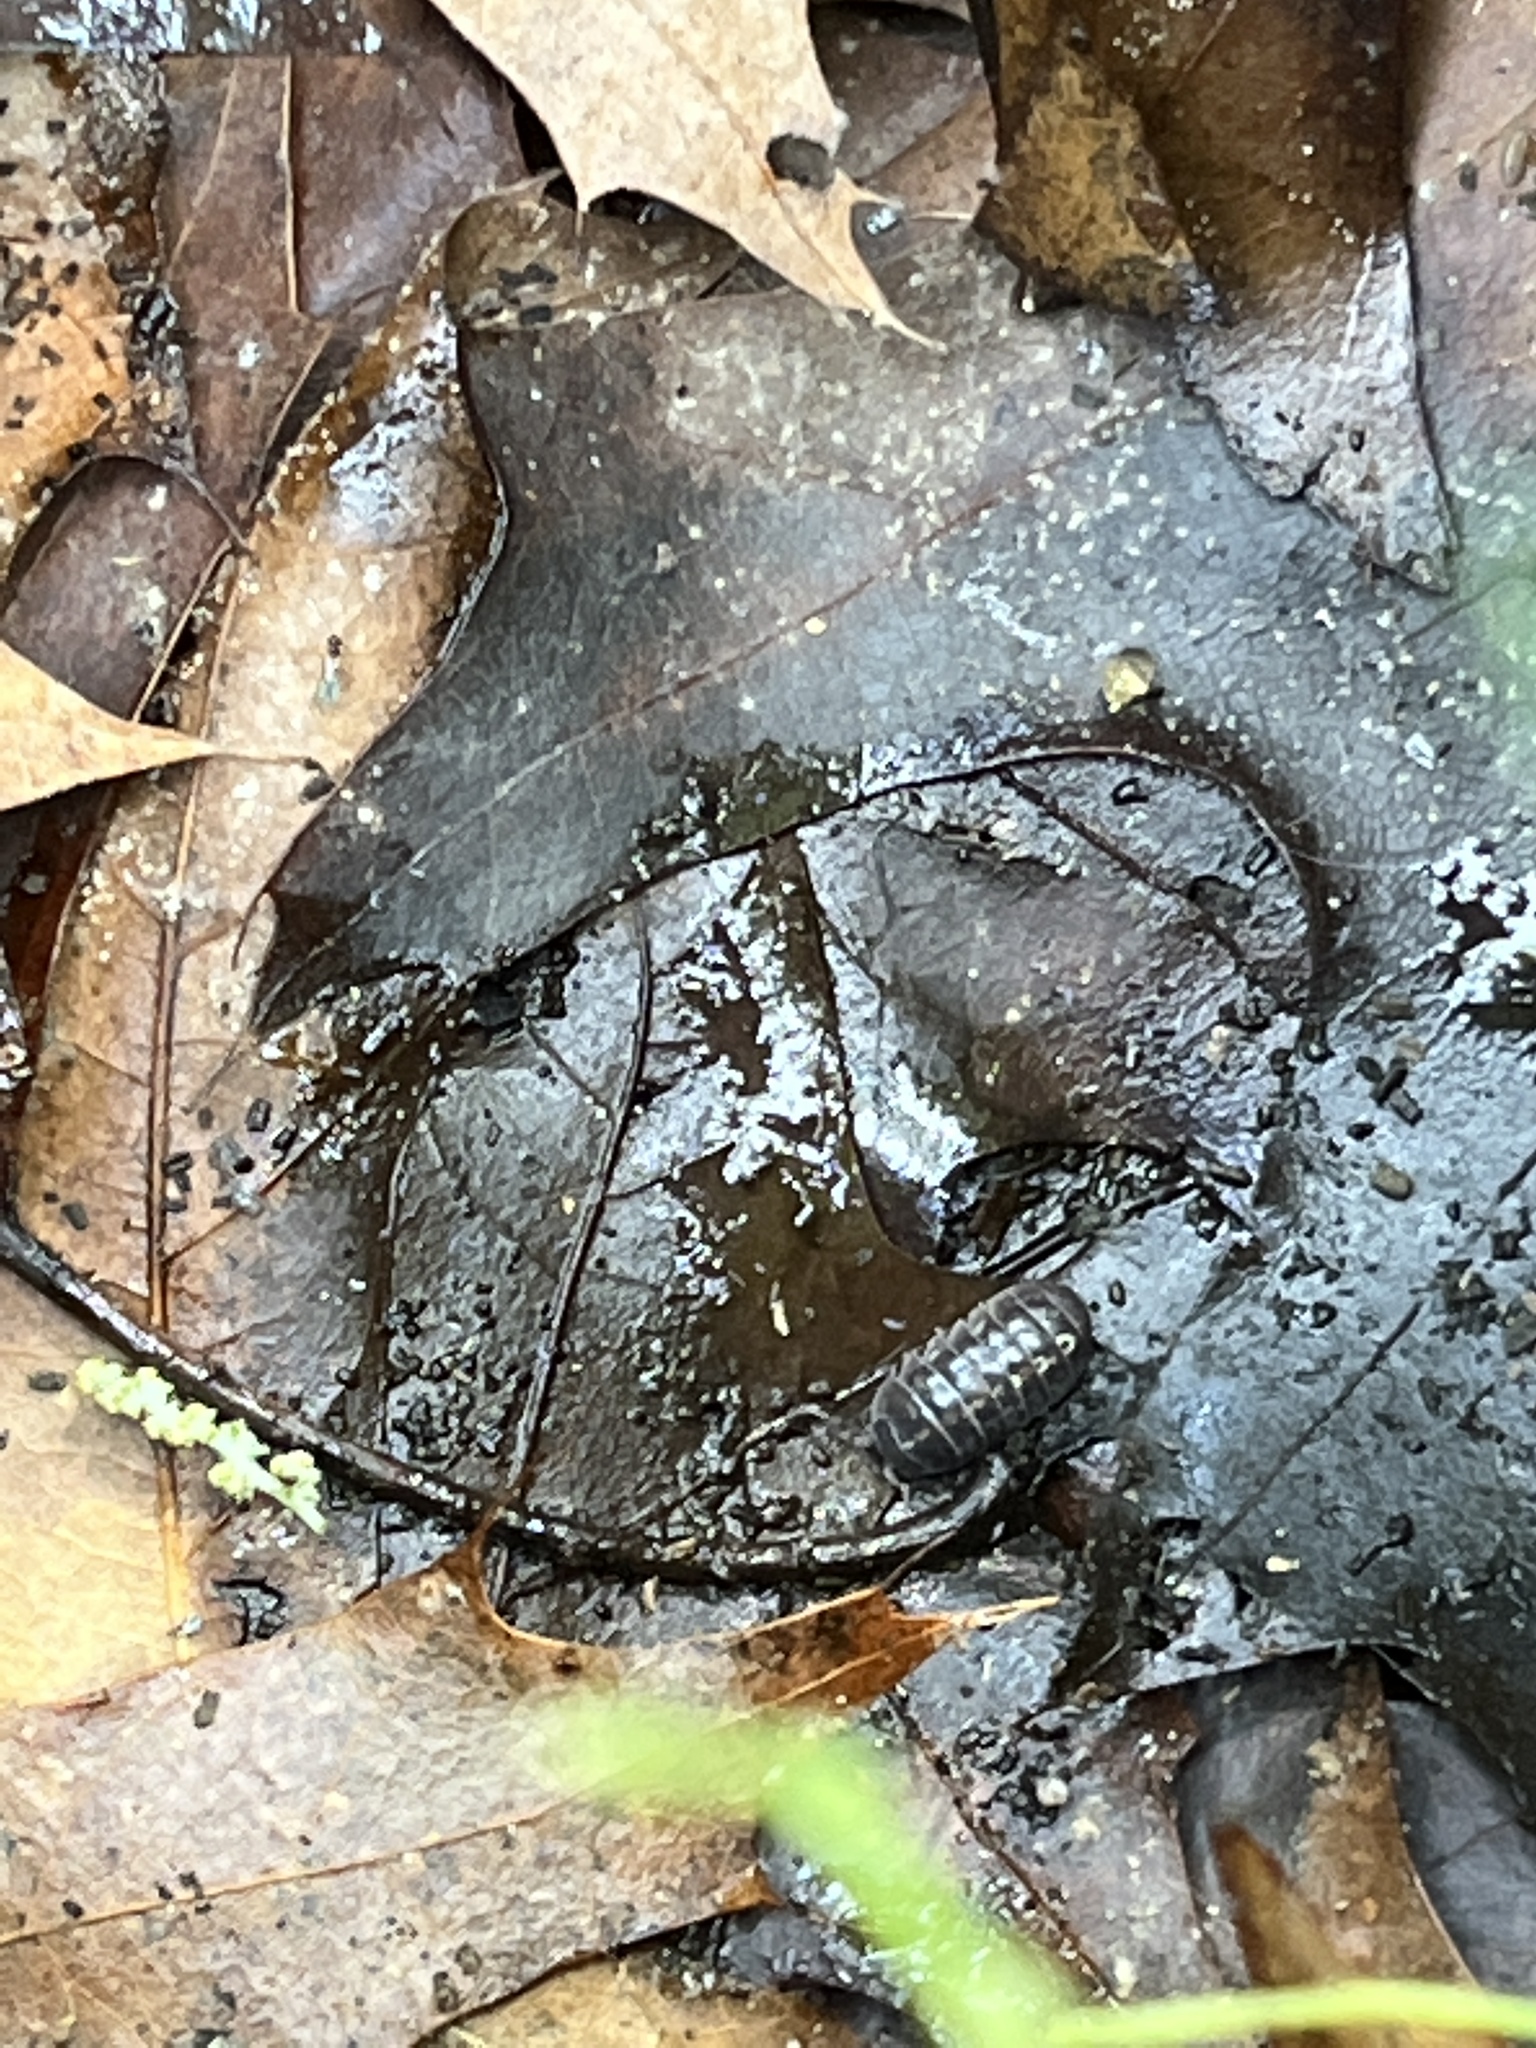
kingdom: Animalia
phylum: Arthropoda
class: Malacostraca
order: Isopoda
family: Armadillidiidae
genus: Armadillidium
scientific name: Armadillidium vulgare
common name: Common pill woodlouse
